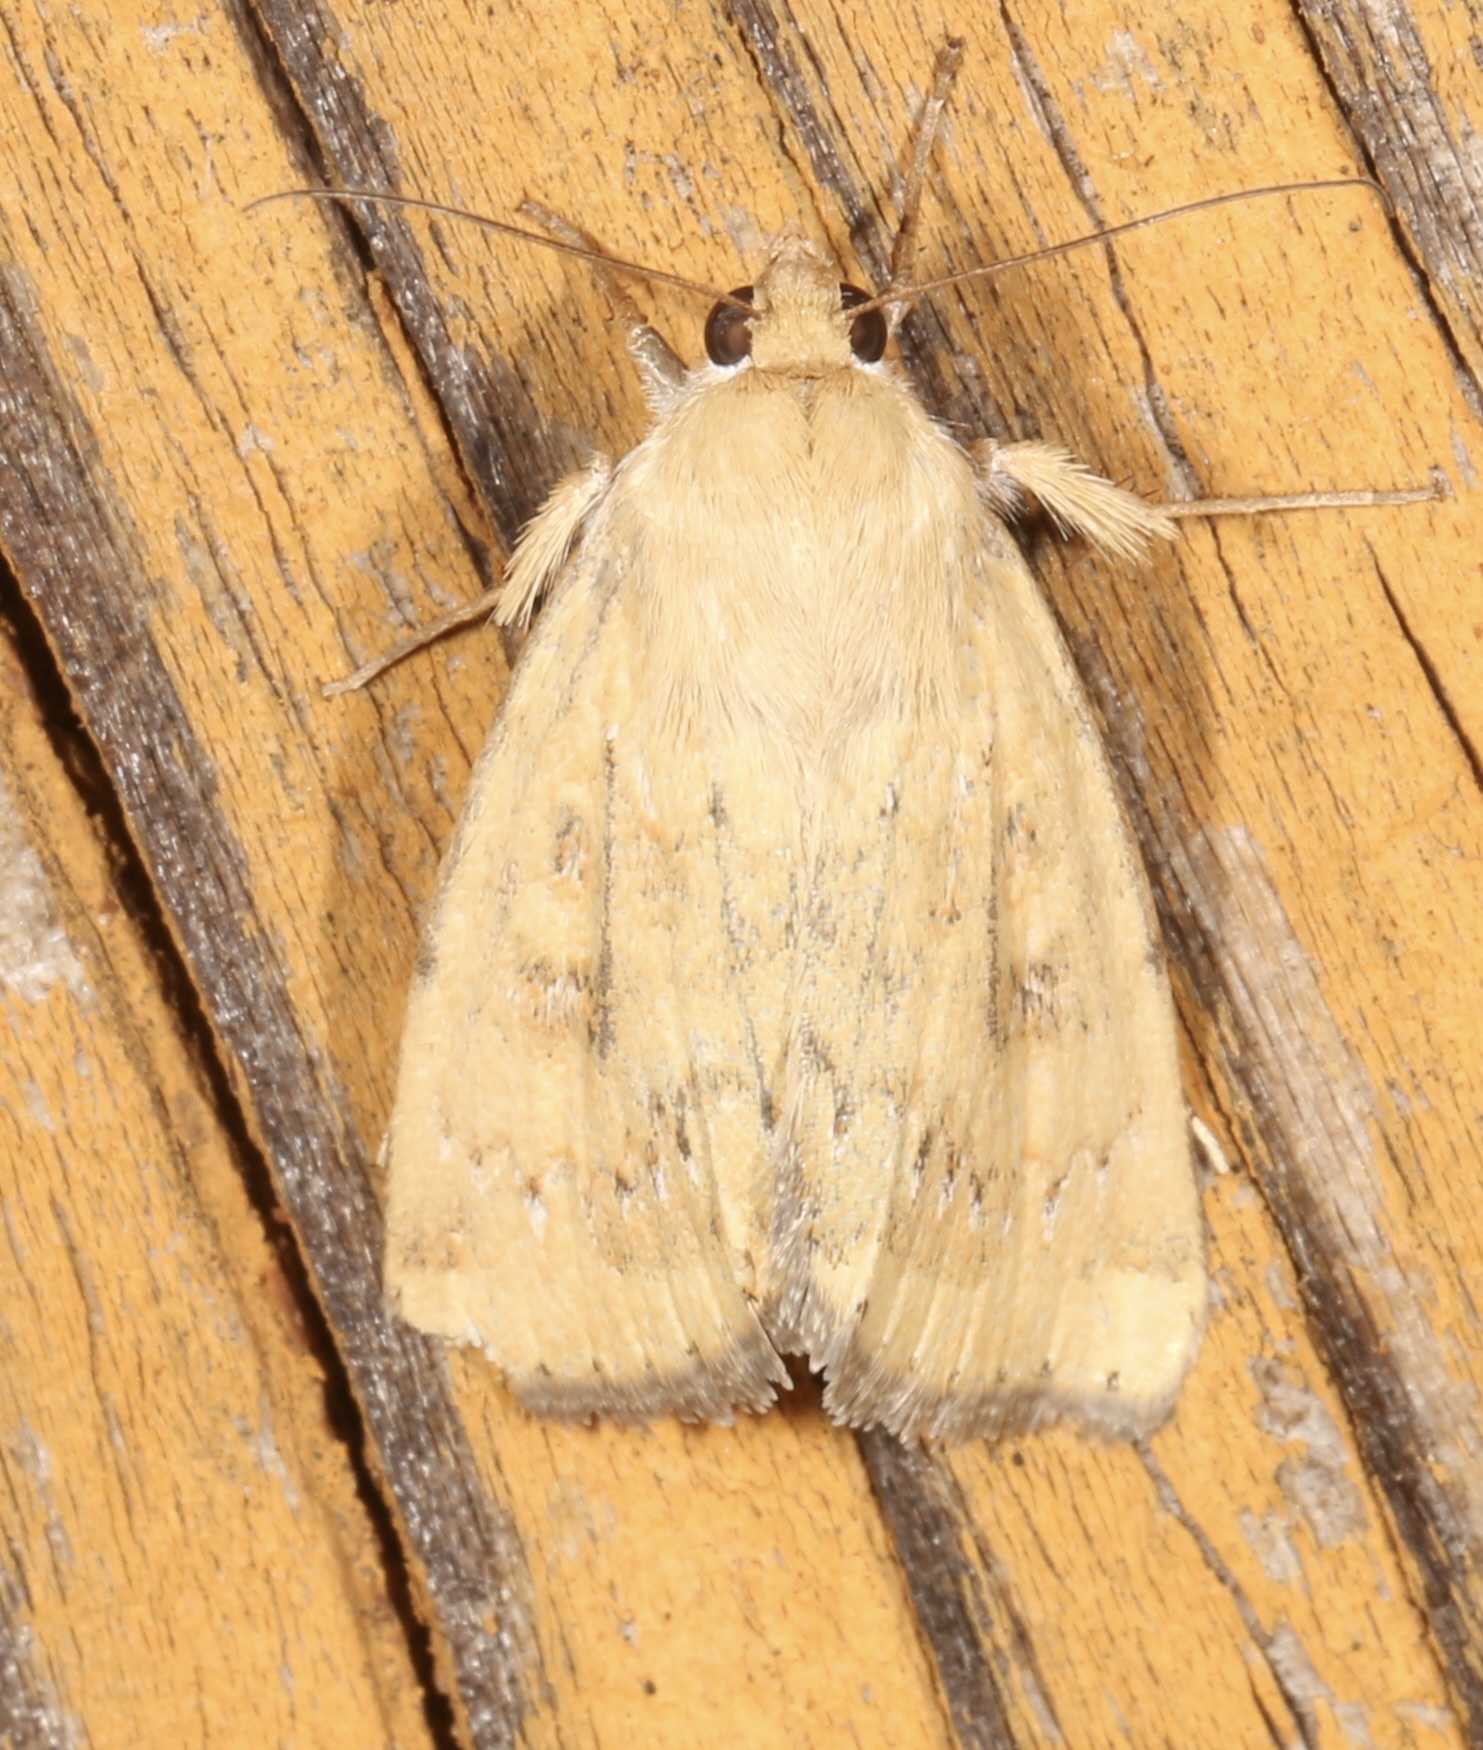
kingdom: Animalia
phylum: Arthropoda
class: Insecta
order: Lepidoptera
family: Noctuidae
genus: Heliocheilus
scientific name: Heliocheilus paradoxus
